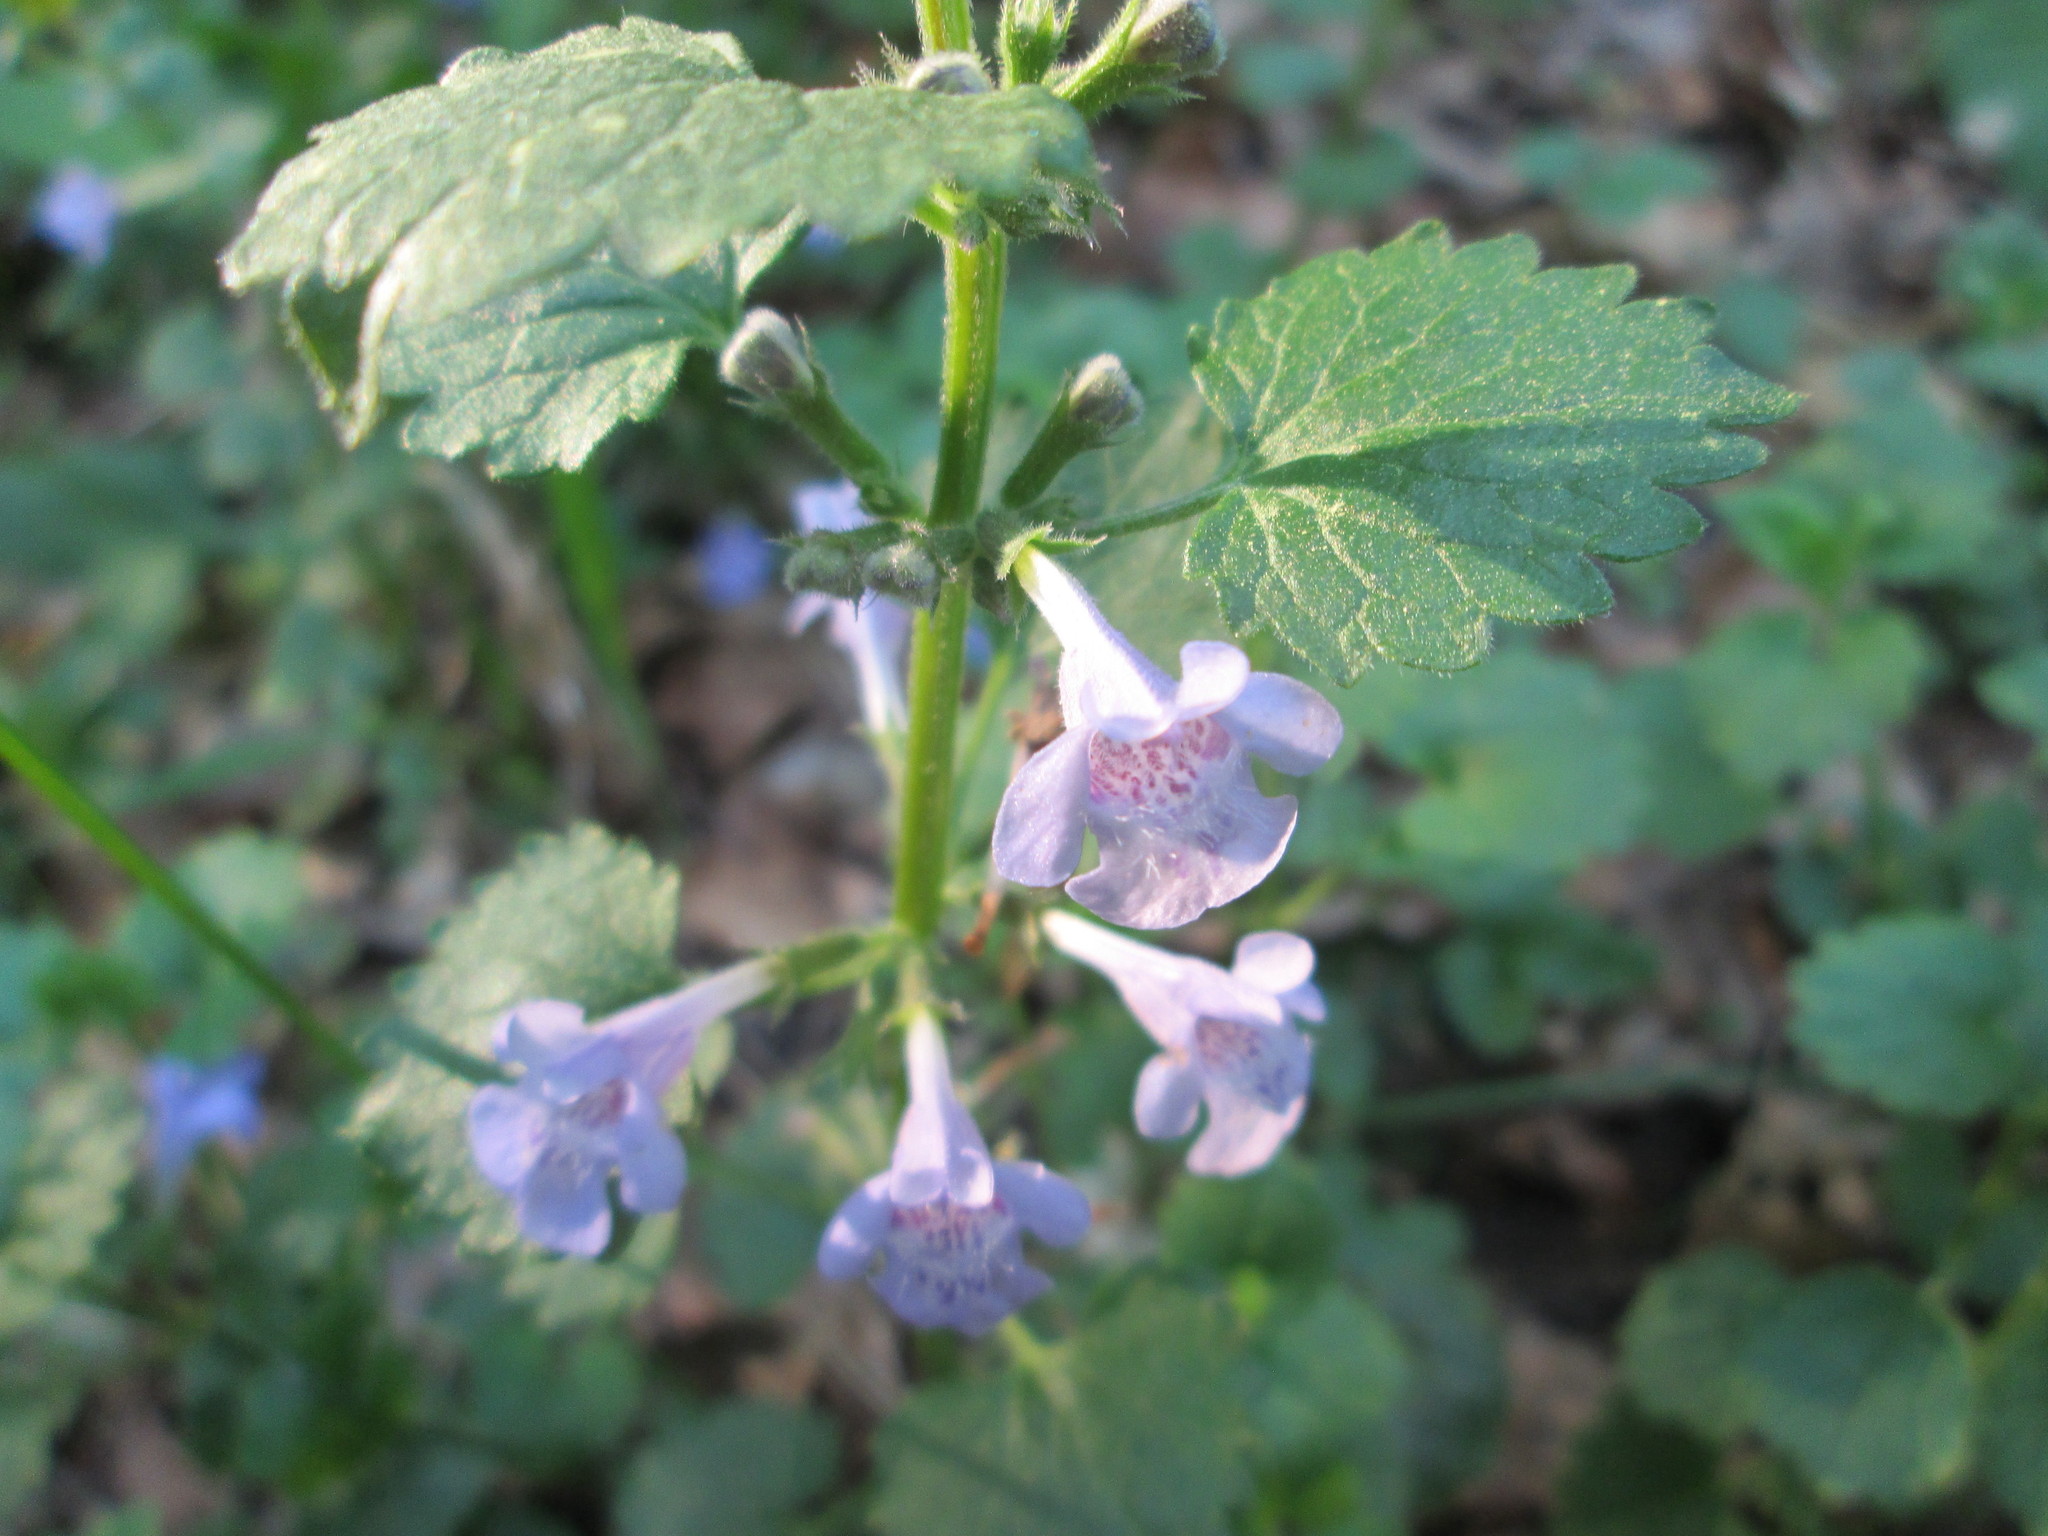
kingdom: Plantae
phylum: Tracheophyta
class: Magnoliopsida
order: Lamiales
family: Lamiaceae
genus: Glechoma
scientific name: Glechoma hederacea
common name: Ground ivy
